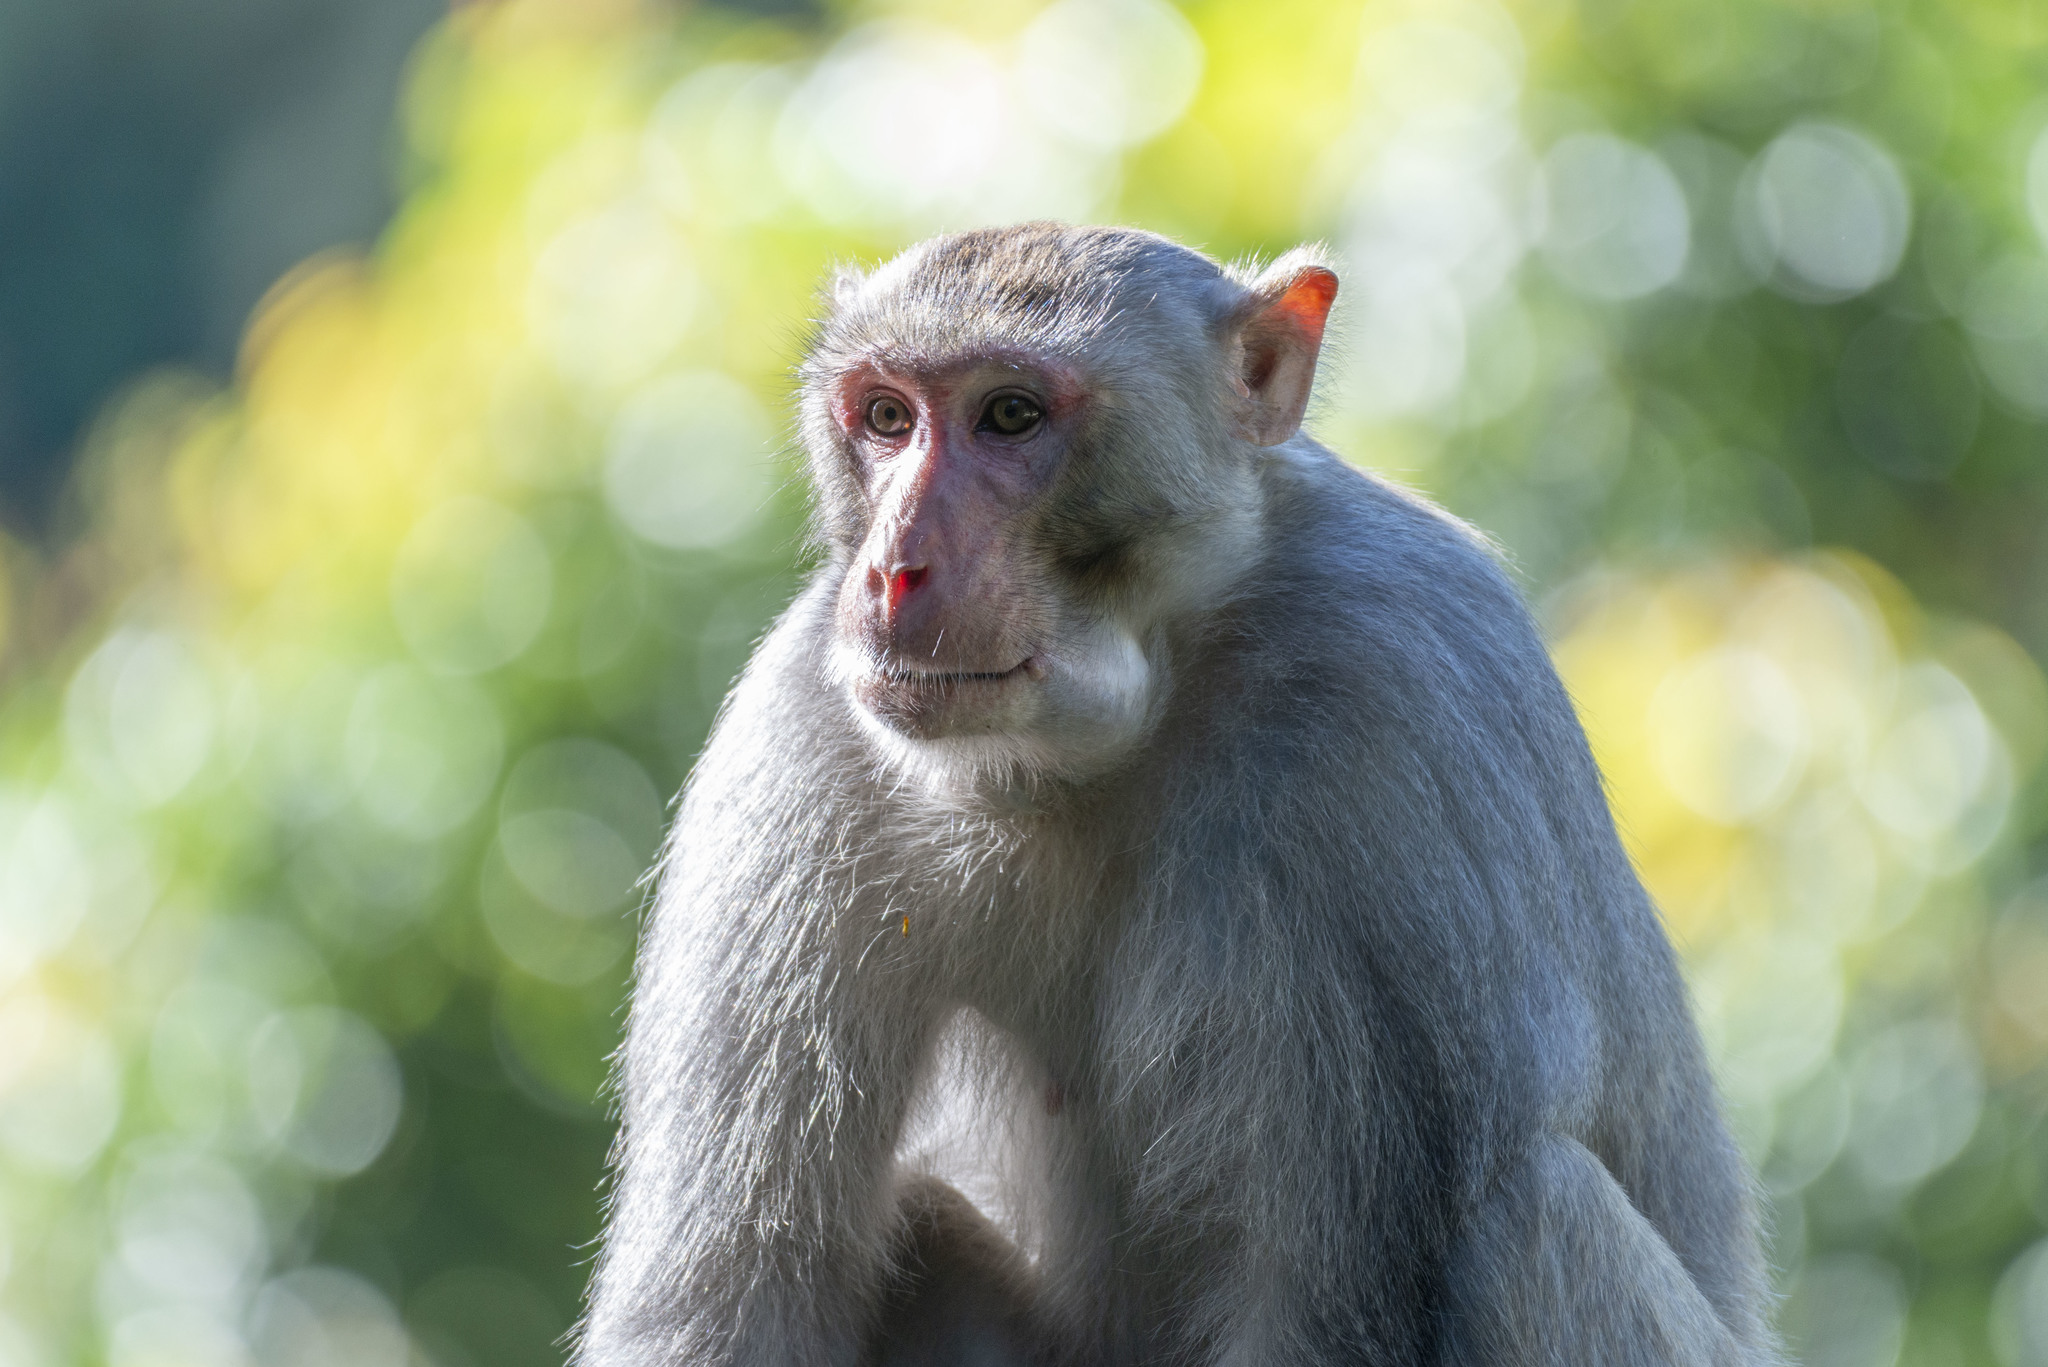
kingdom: Animalia
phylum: Chordata
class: Mammalia
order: Primates
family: Cercopithecidae
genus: Macaca
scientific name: Macaca mulatta
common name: Rhesus monkey
